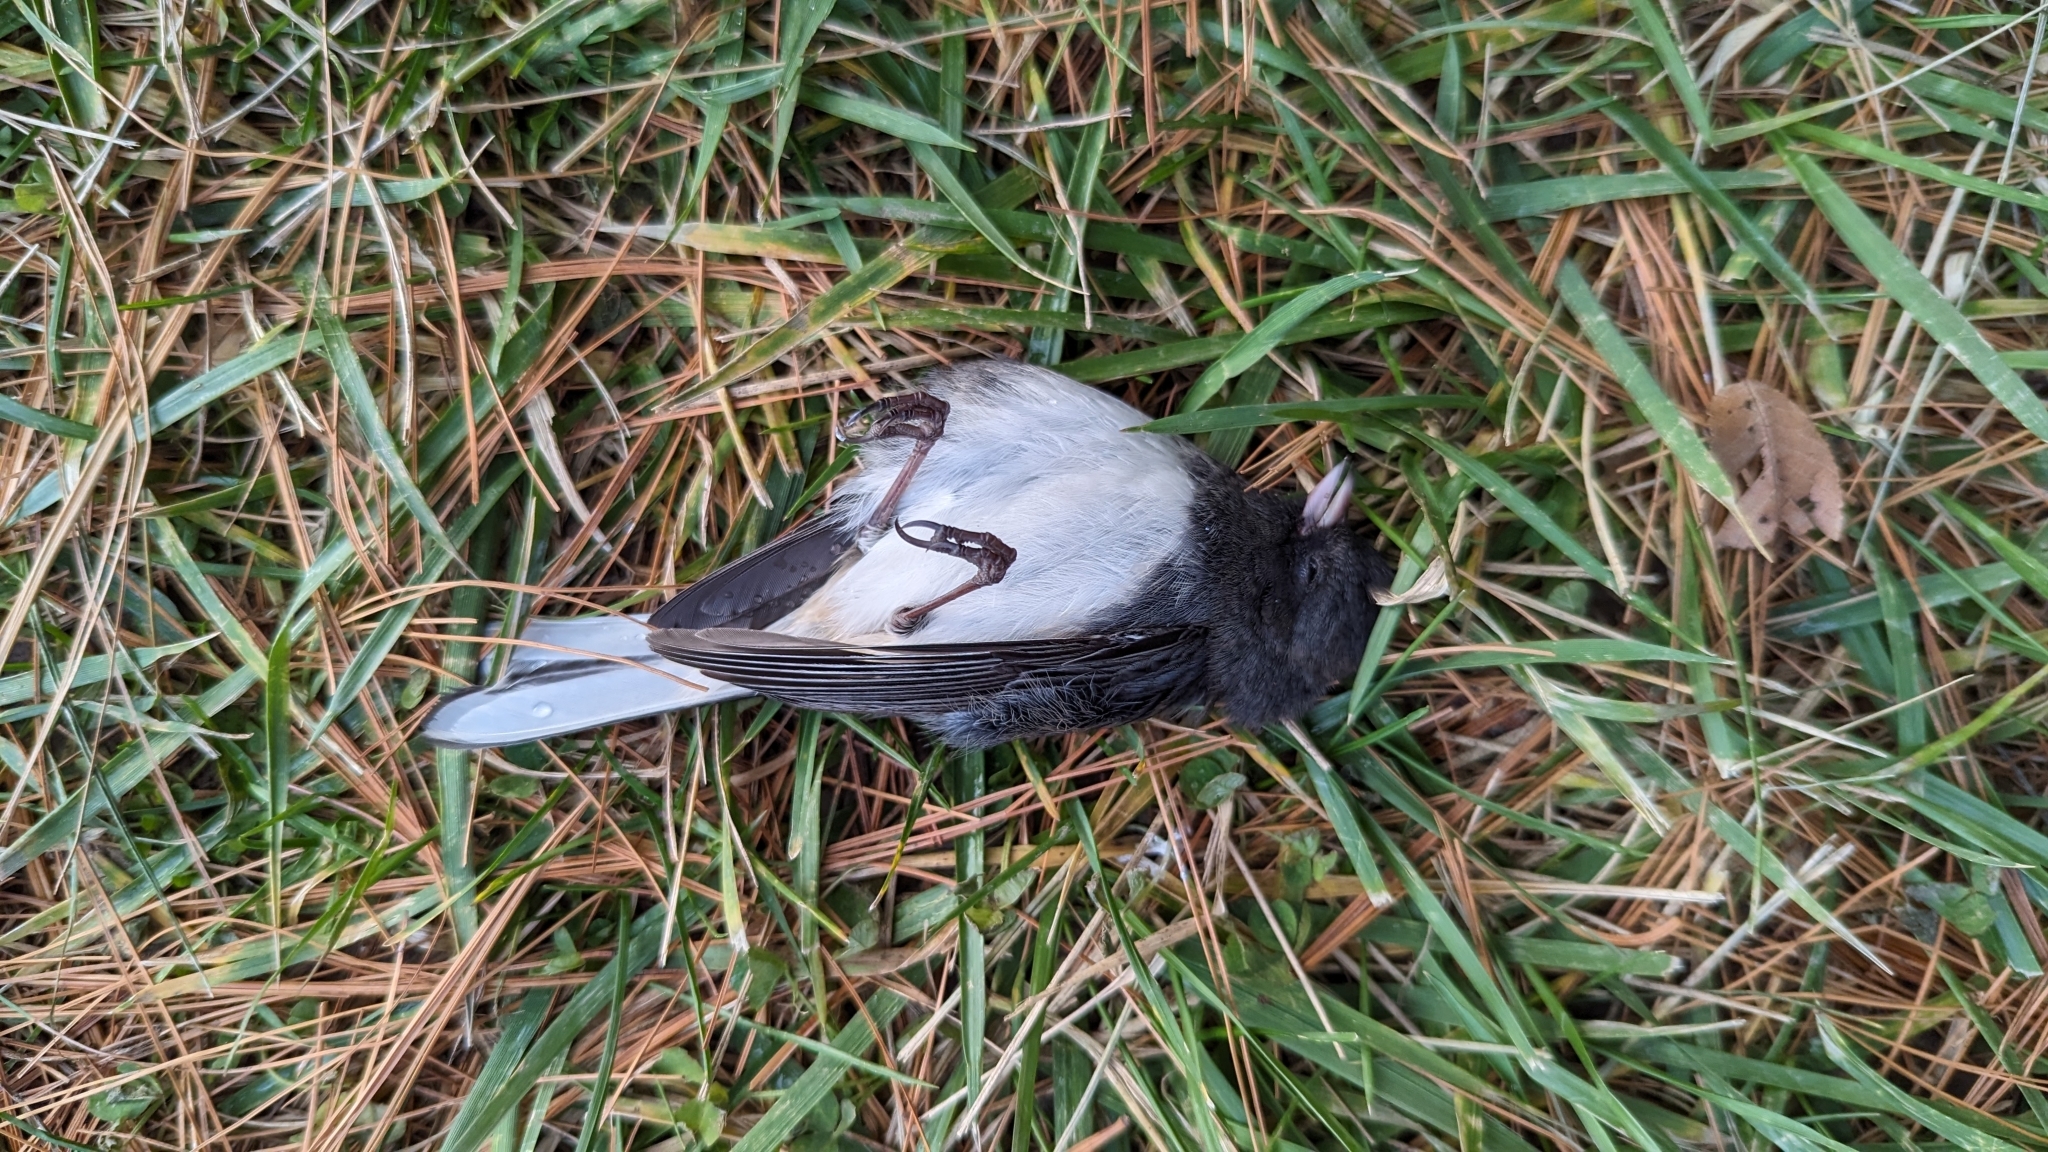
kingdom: Animalia
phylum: Chordata
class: Aves
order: Passeriformes
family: Passerellidae
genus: Junco
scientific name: Junco hyemalis
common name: Dark-eyed junco
